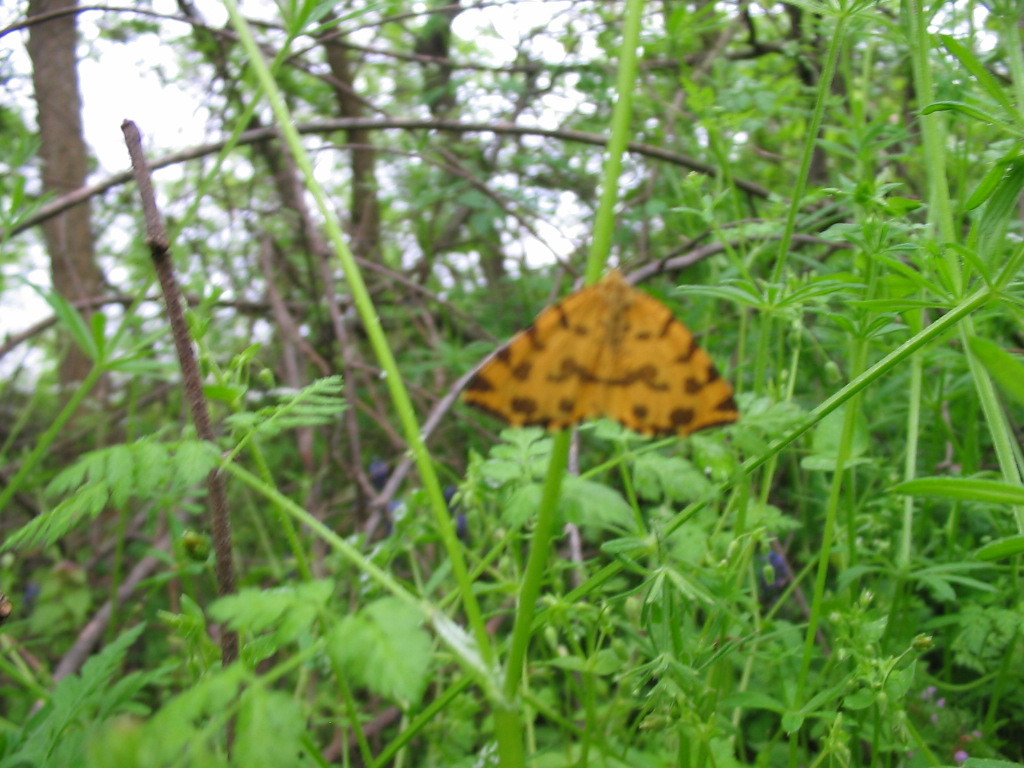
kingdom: Animalia
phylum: Arthropoda
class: Insecta
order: Lepidoptera
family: Geometridae
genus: Pseudopanthera
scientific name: Pseudopanthera macularia
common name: Speckled yellow
